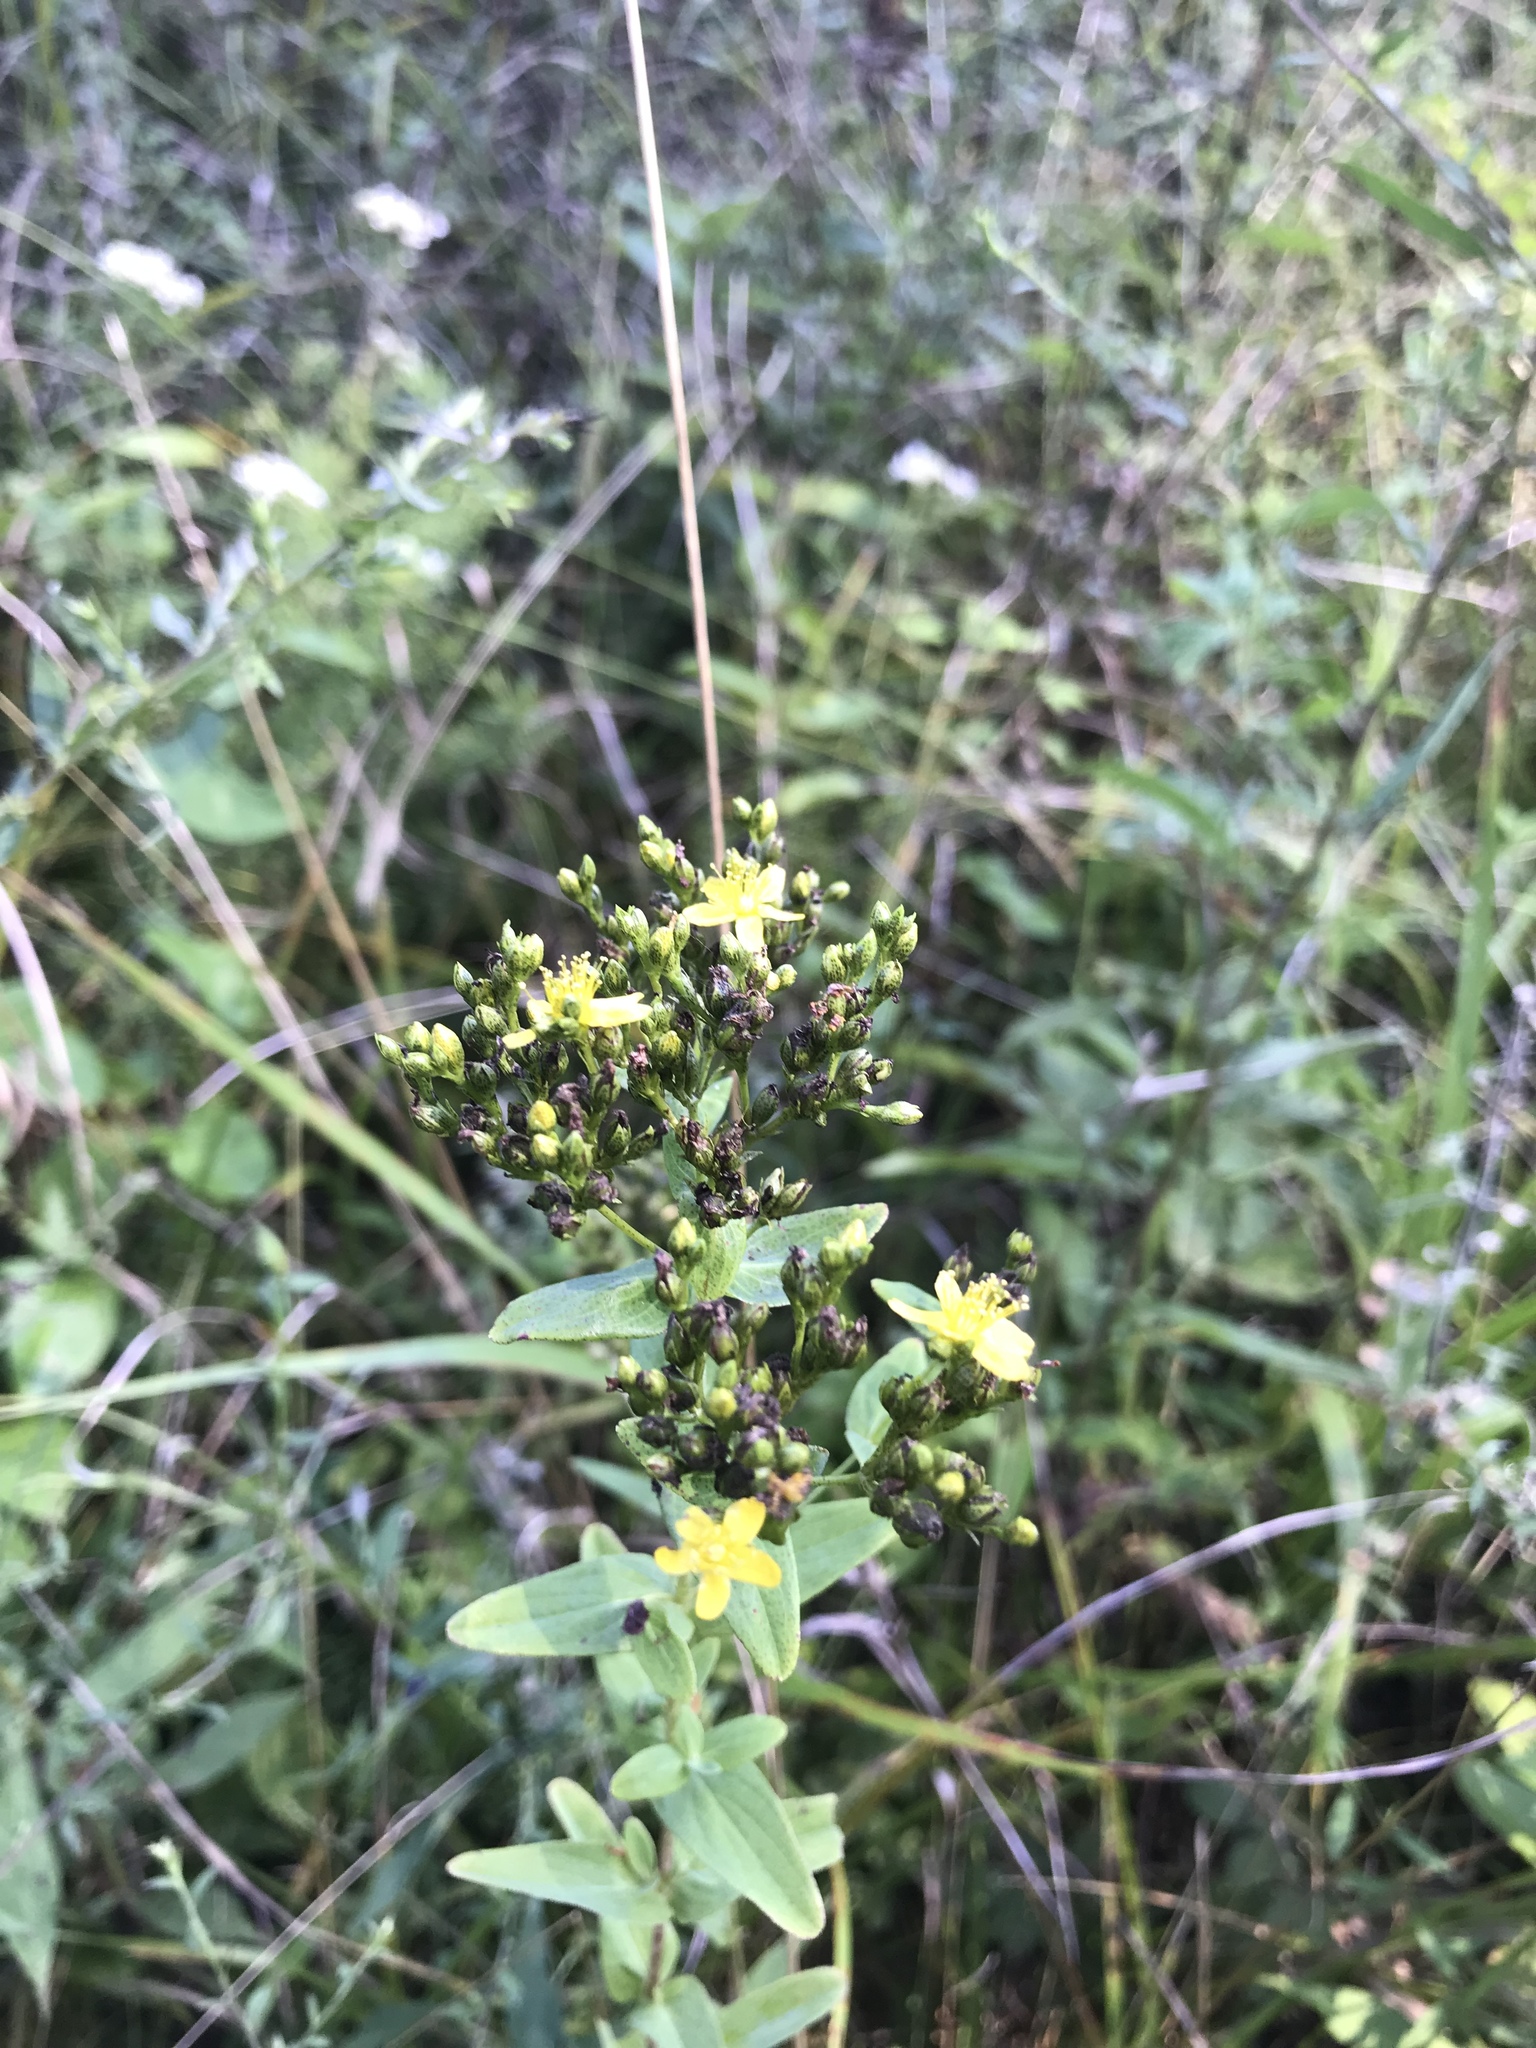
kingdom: Plantae
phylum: Tracheophyta
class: Magnoliopsida
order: Malpighiales
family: Hypericaceae
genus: Hypericum
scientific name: Hypericum punctatum
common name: Spotted st. john's-wort
